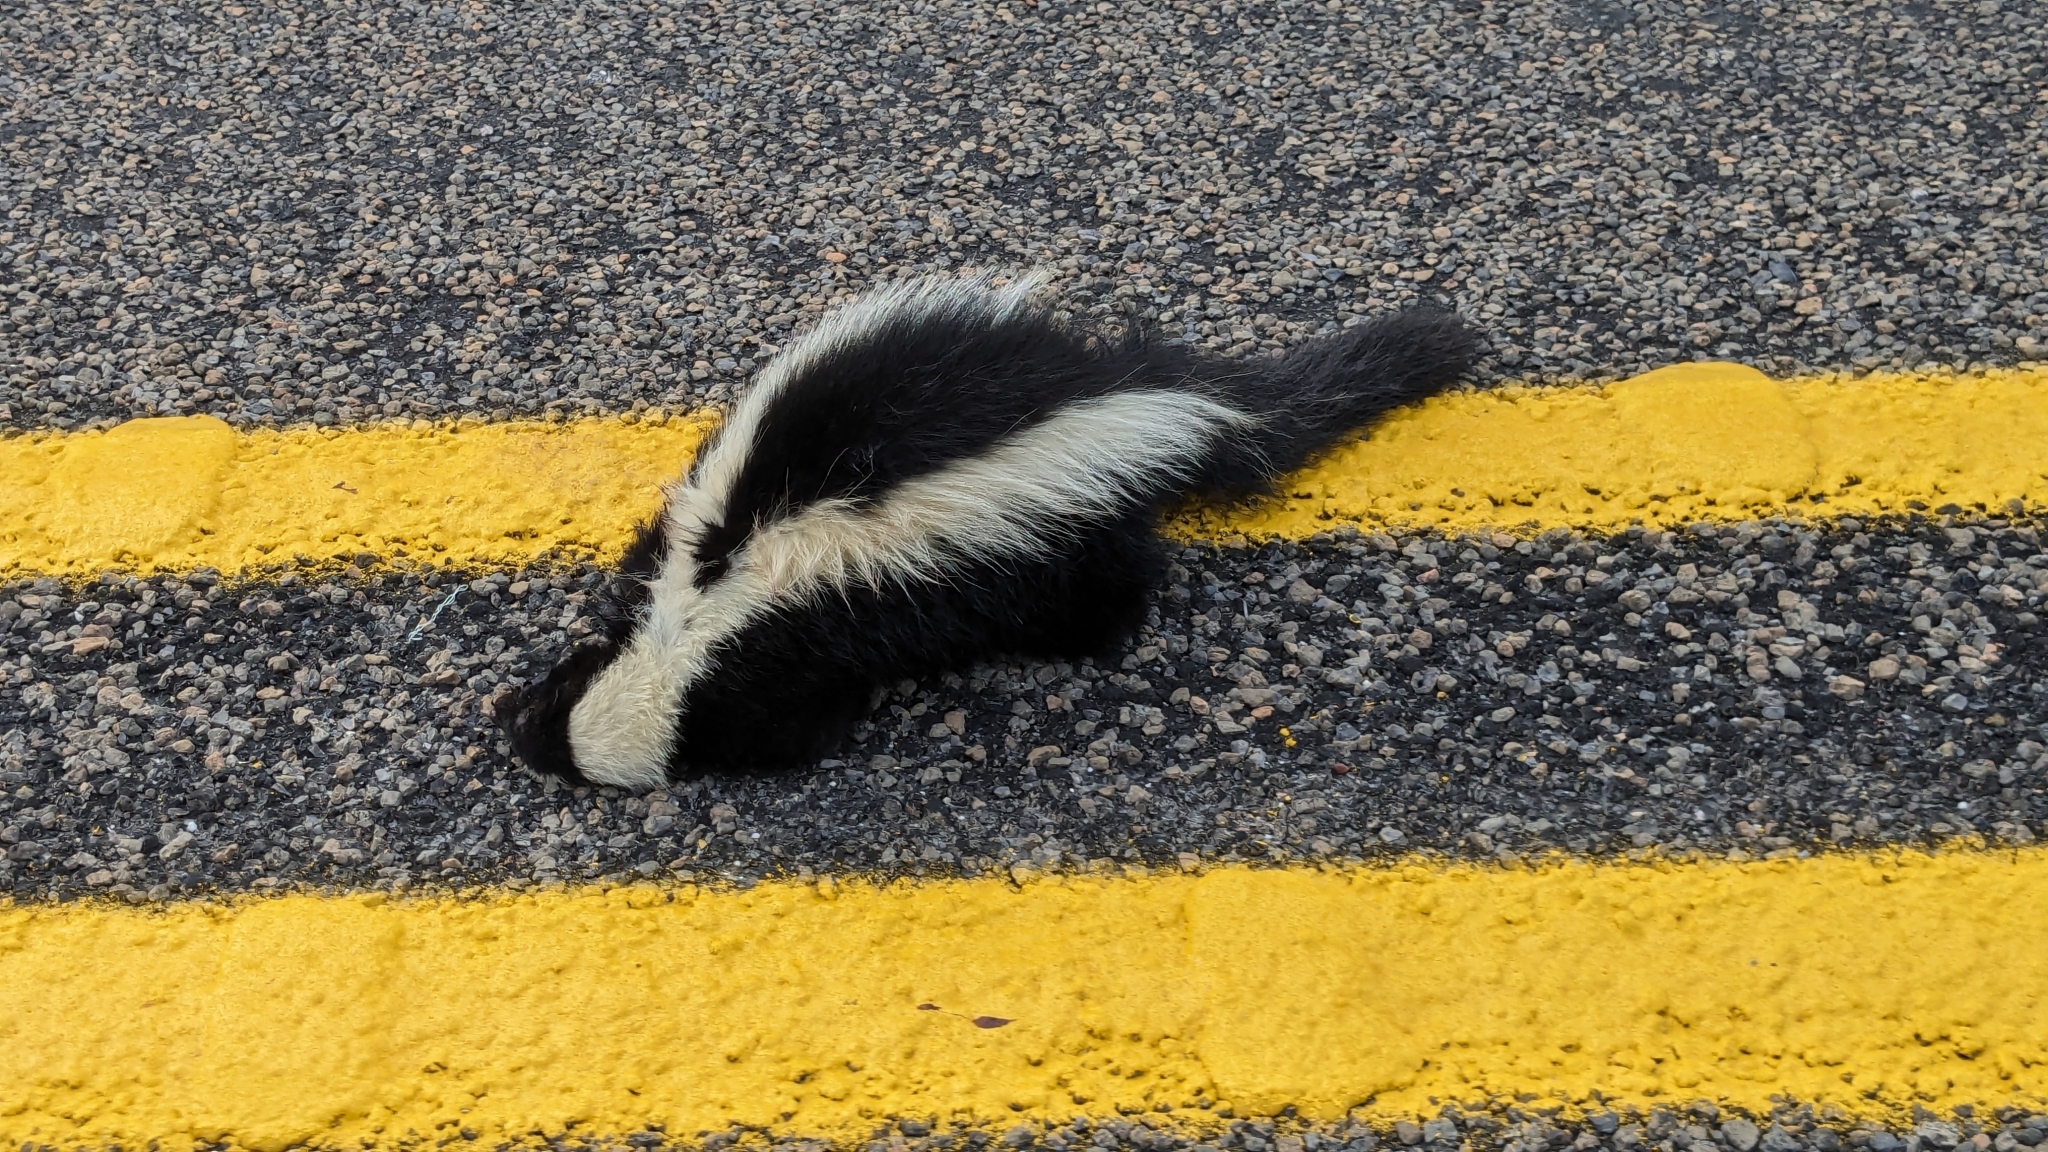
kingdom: Animalia
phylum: Chordata
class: Mammalia
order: Carnivora
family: Mephitidae
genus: Mephitis
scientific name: Mephitis mephitis
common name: Striped skunk
